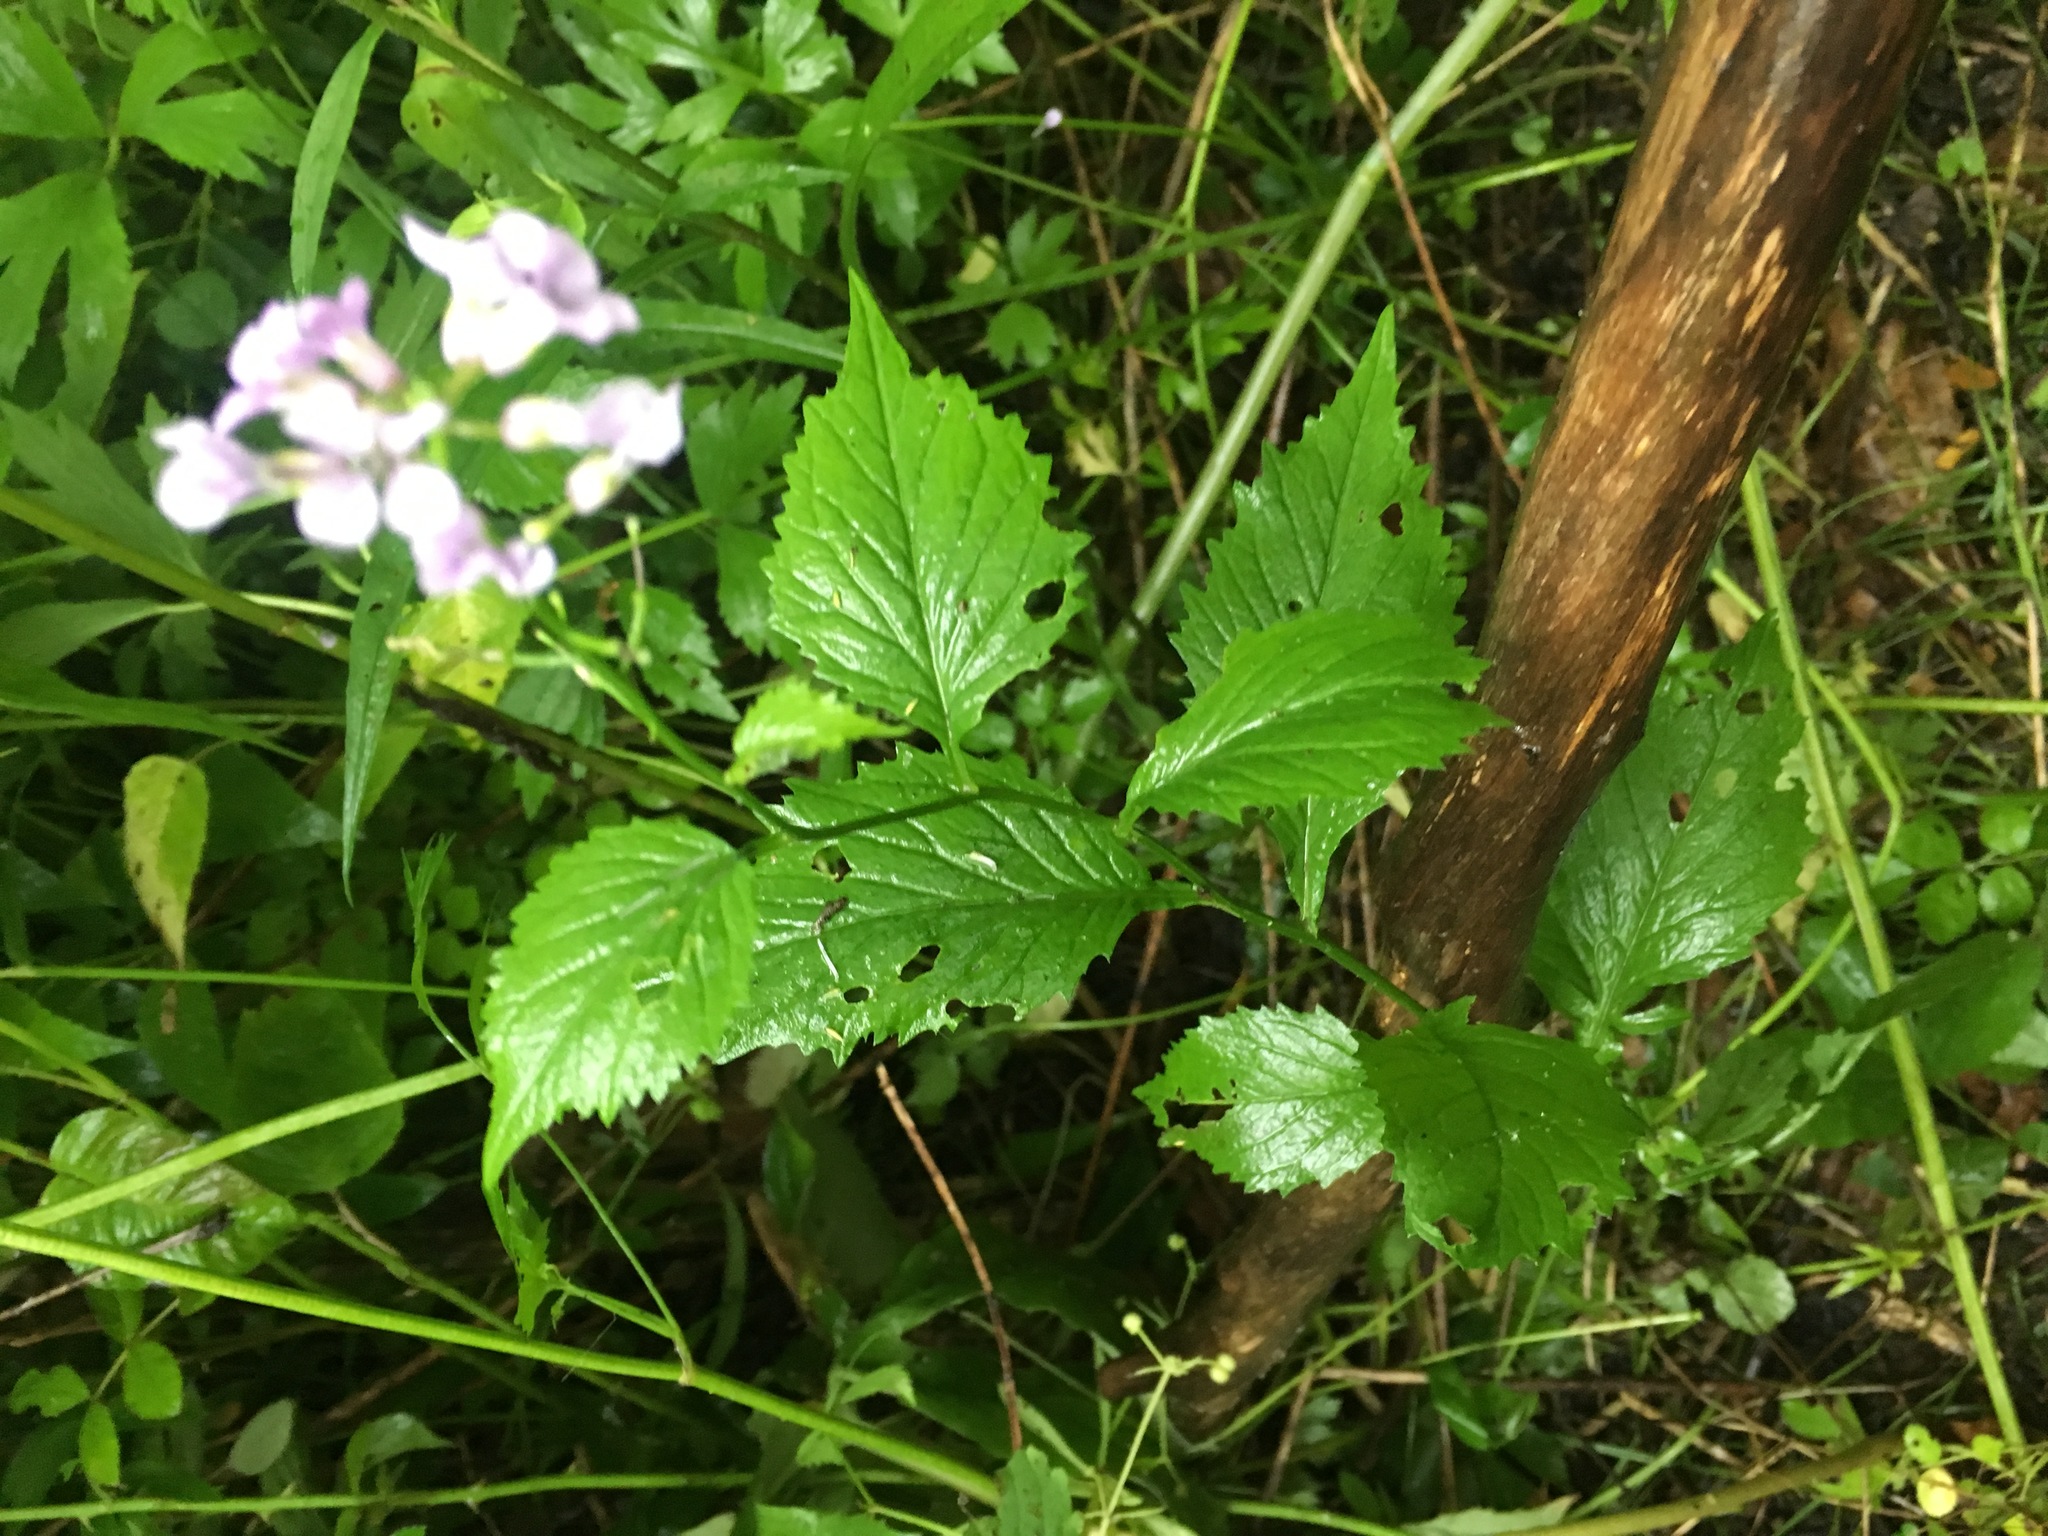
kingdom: Plantae
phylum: Tracheophyta
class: Magnoliopsida
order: Brassicales
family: Brassicaceae
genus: Iodanthus
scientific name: Iodanthus pinnatifidus
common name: Violet rocket
